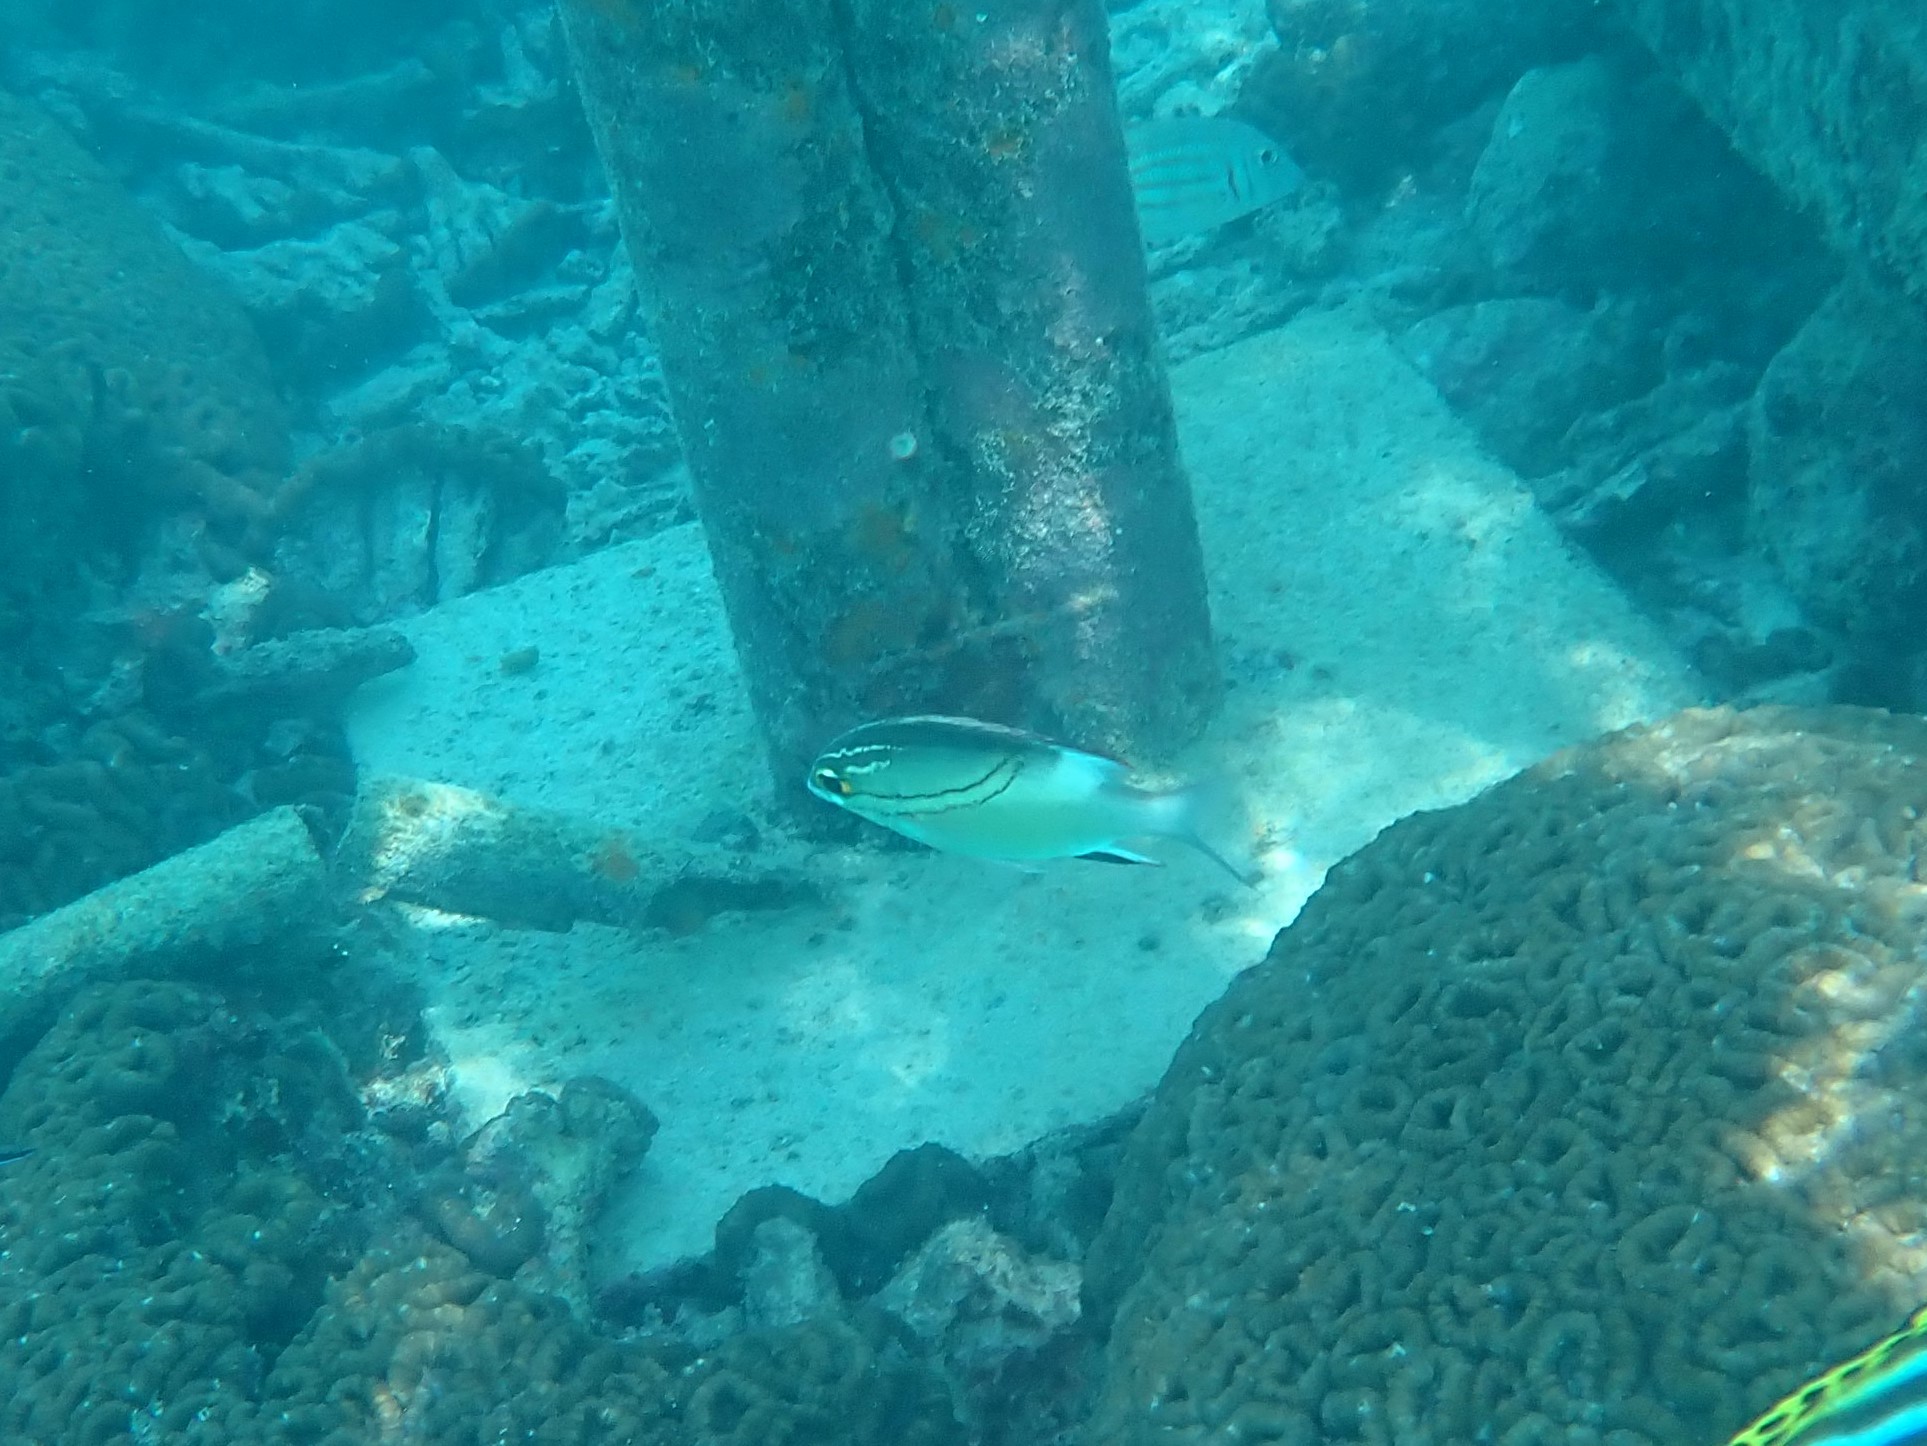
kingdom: Animalia
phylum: Chordata
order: Perciformes
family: Nemipteridae
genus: Scolopsis
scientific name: Scolopsis bilineata
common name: Two-lined monocle bream
